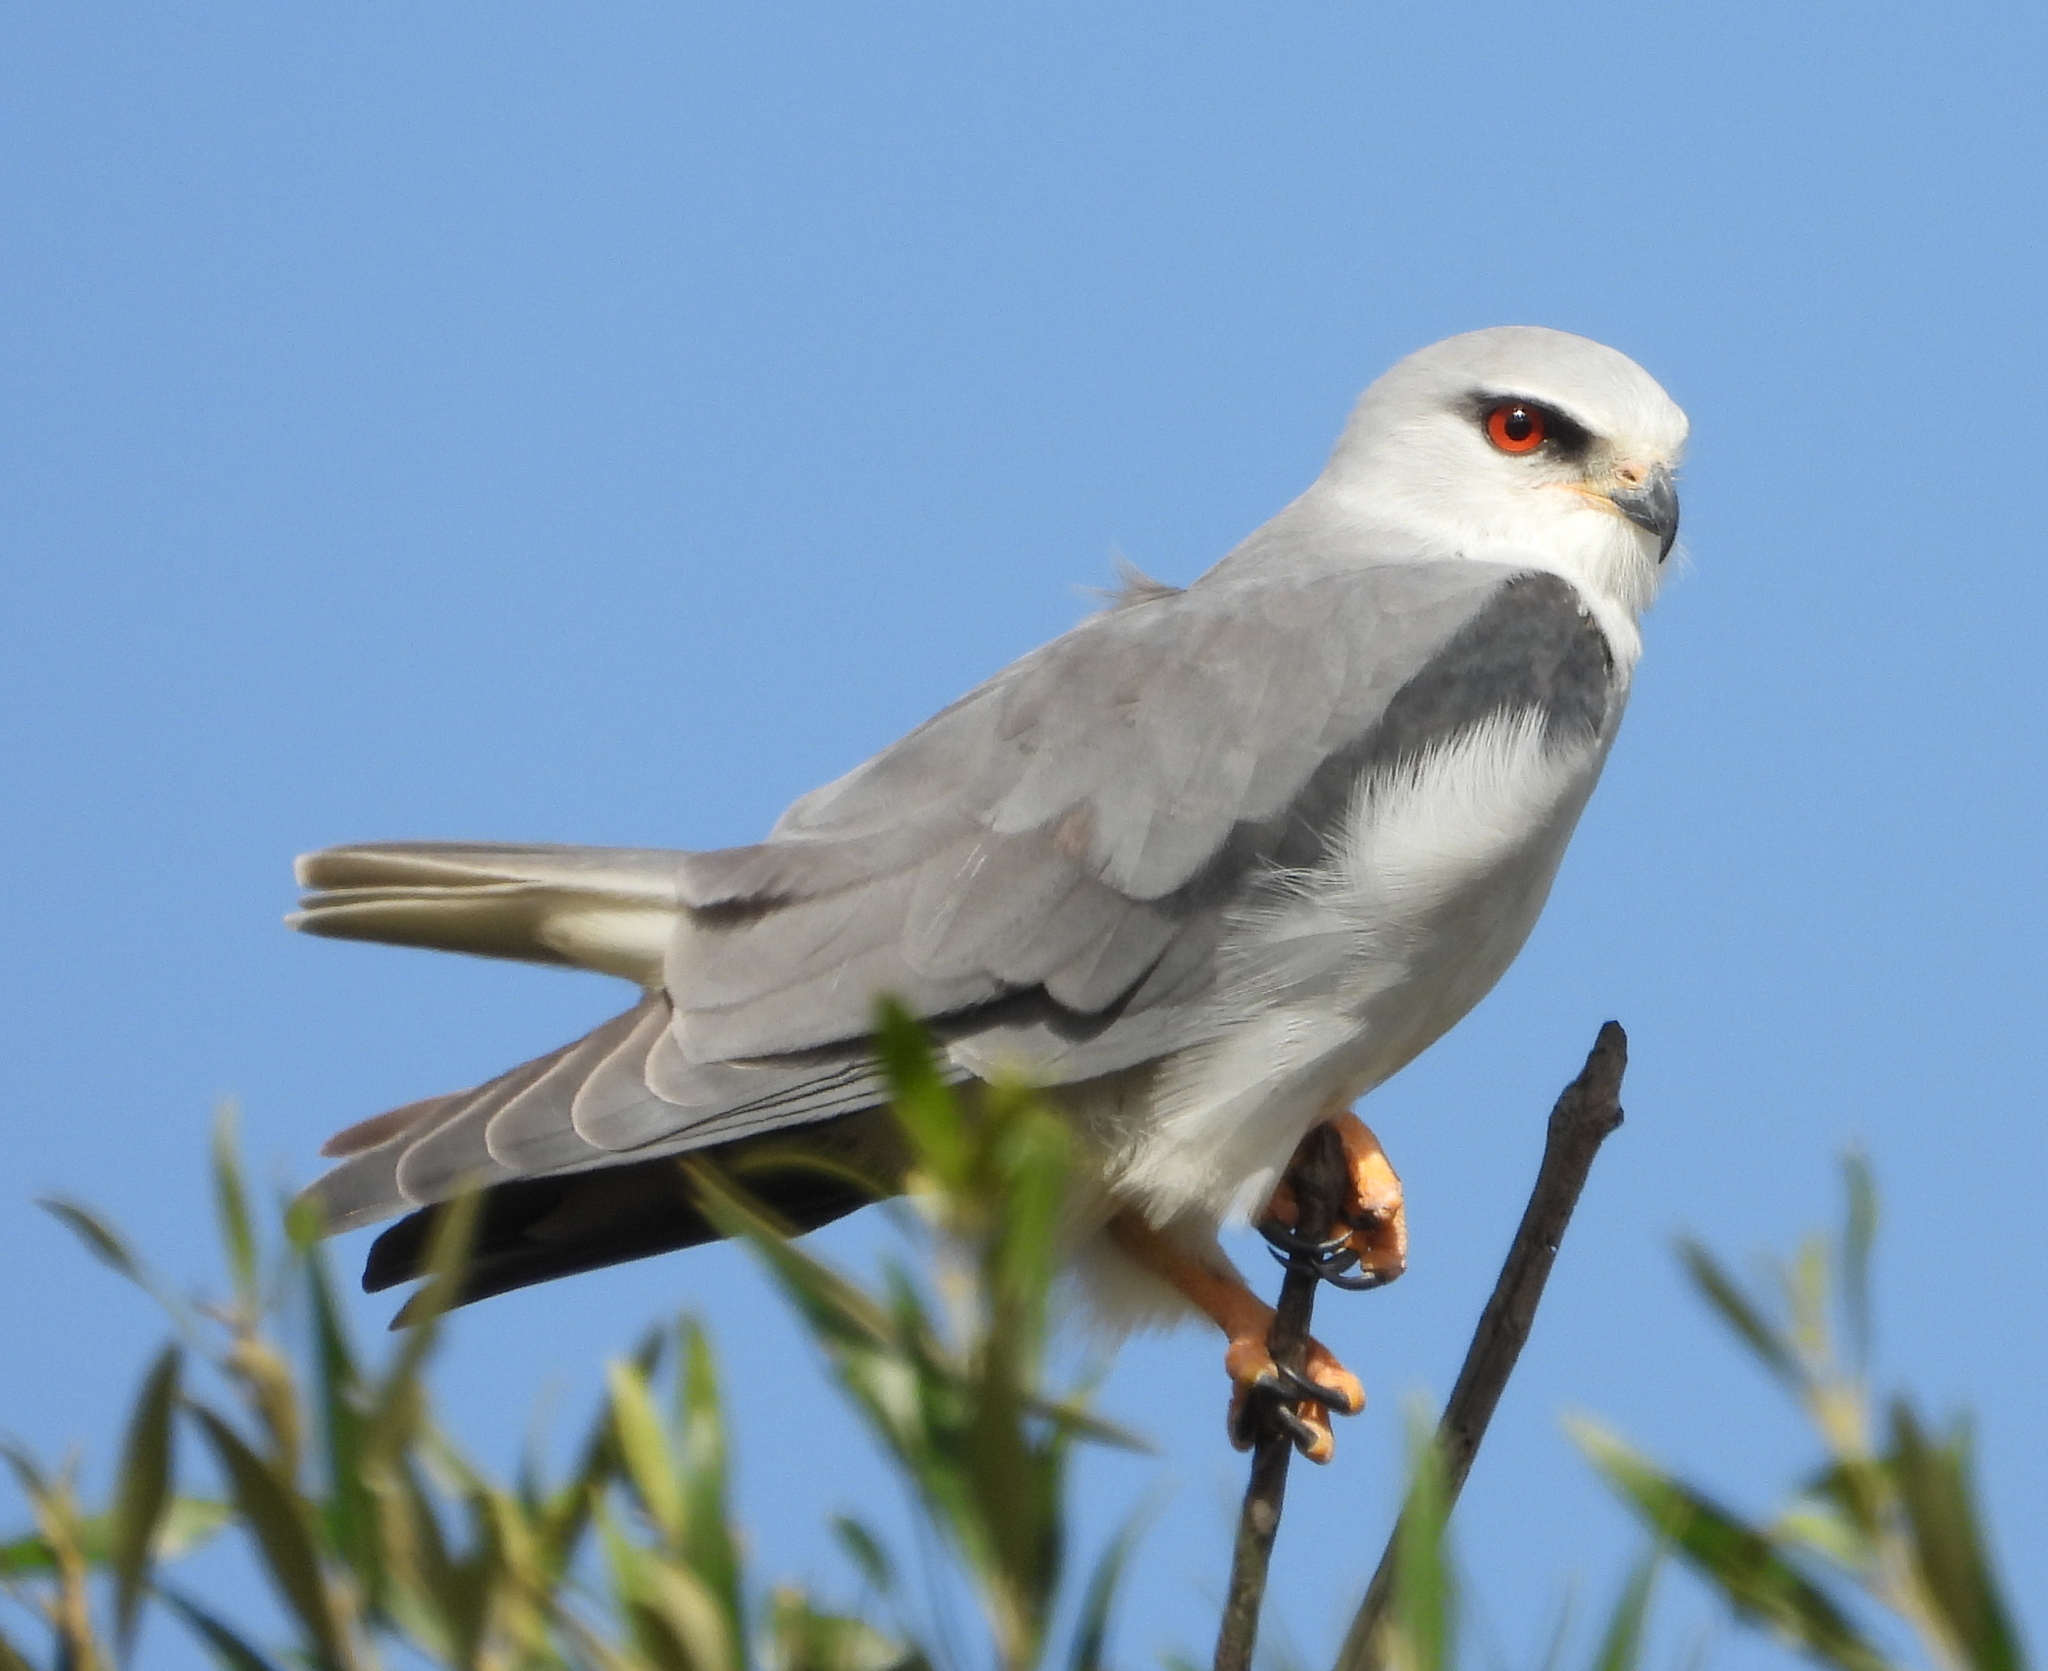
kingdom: Animalia
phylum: Chordata
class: Aves
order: Accipitriformes
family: Accipitridae
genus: Elanus
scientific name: Elanus caeruleus
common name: Black-winged kite
